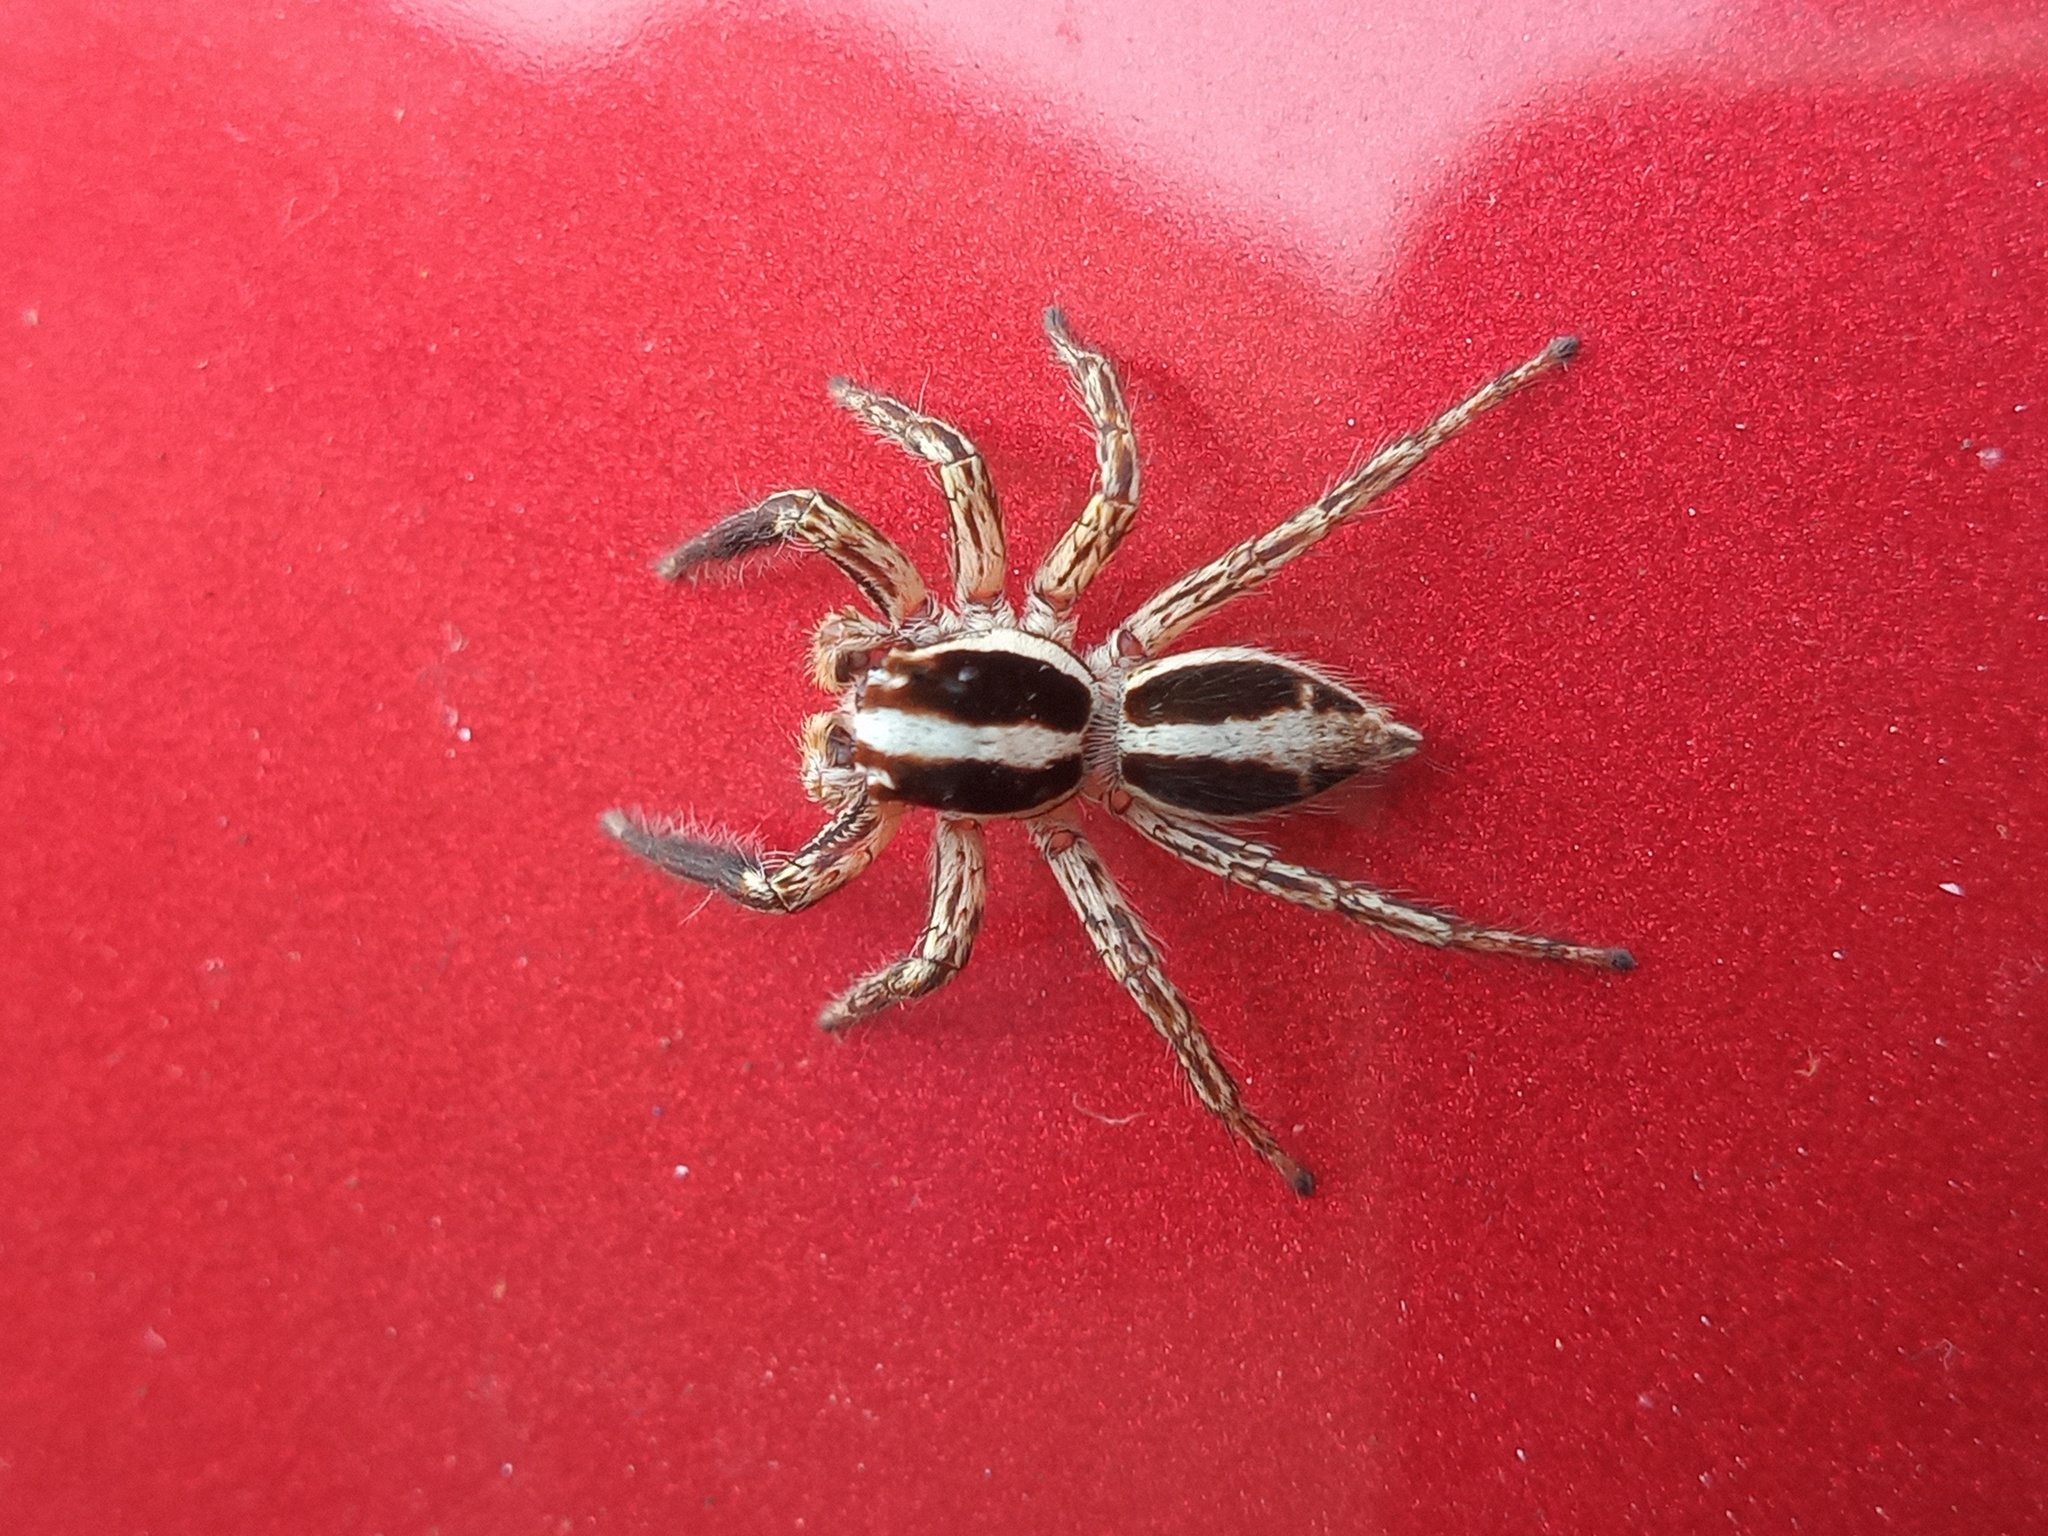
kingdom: Animalia
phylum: Arthropoda
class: Arachnida
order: Araneae
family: Salticidae
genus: Plexippus
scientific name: Plexippus paykulli
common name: Pantropical jumper
